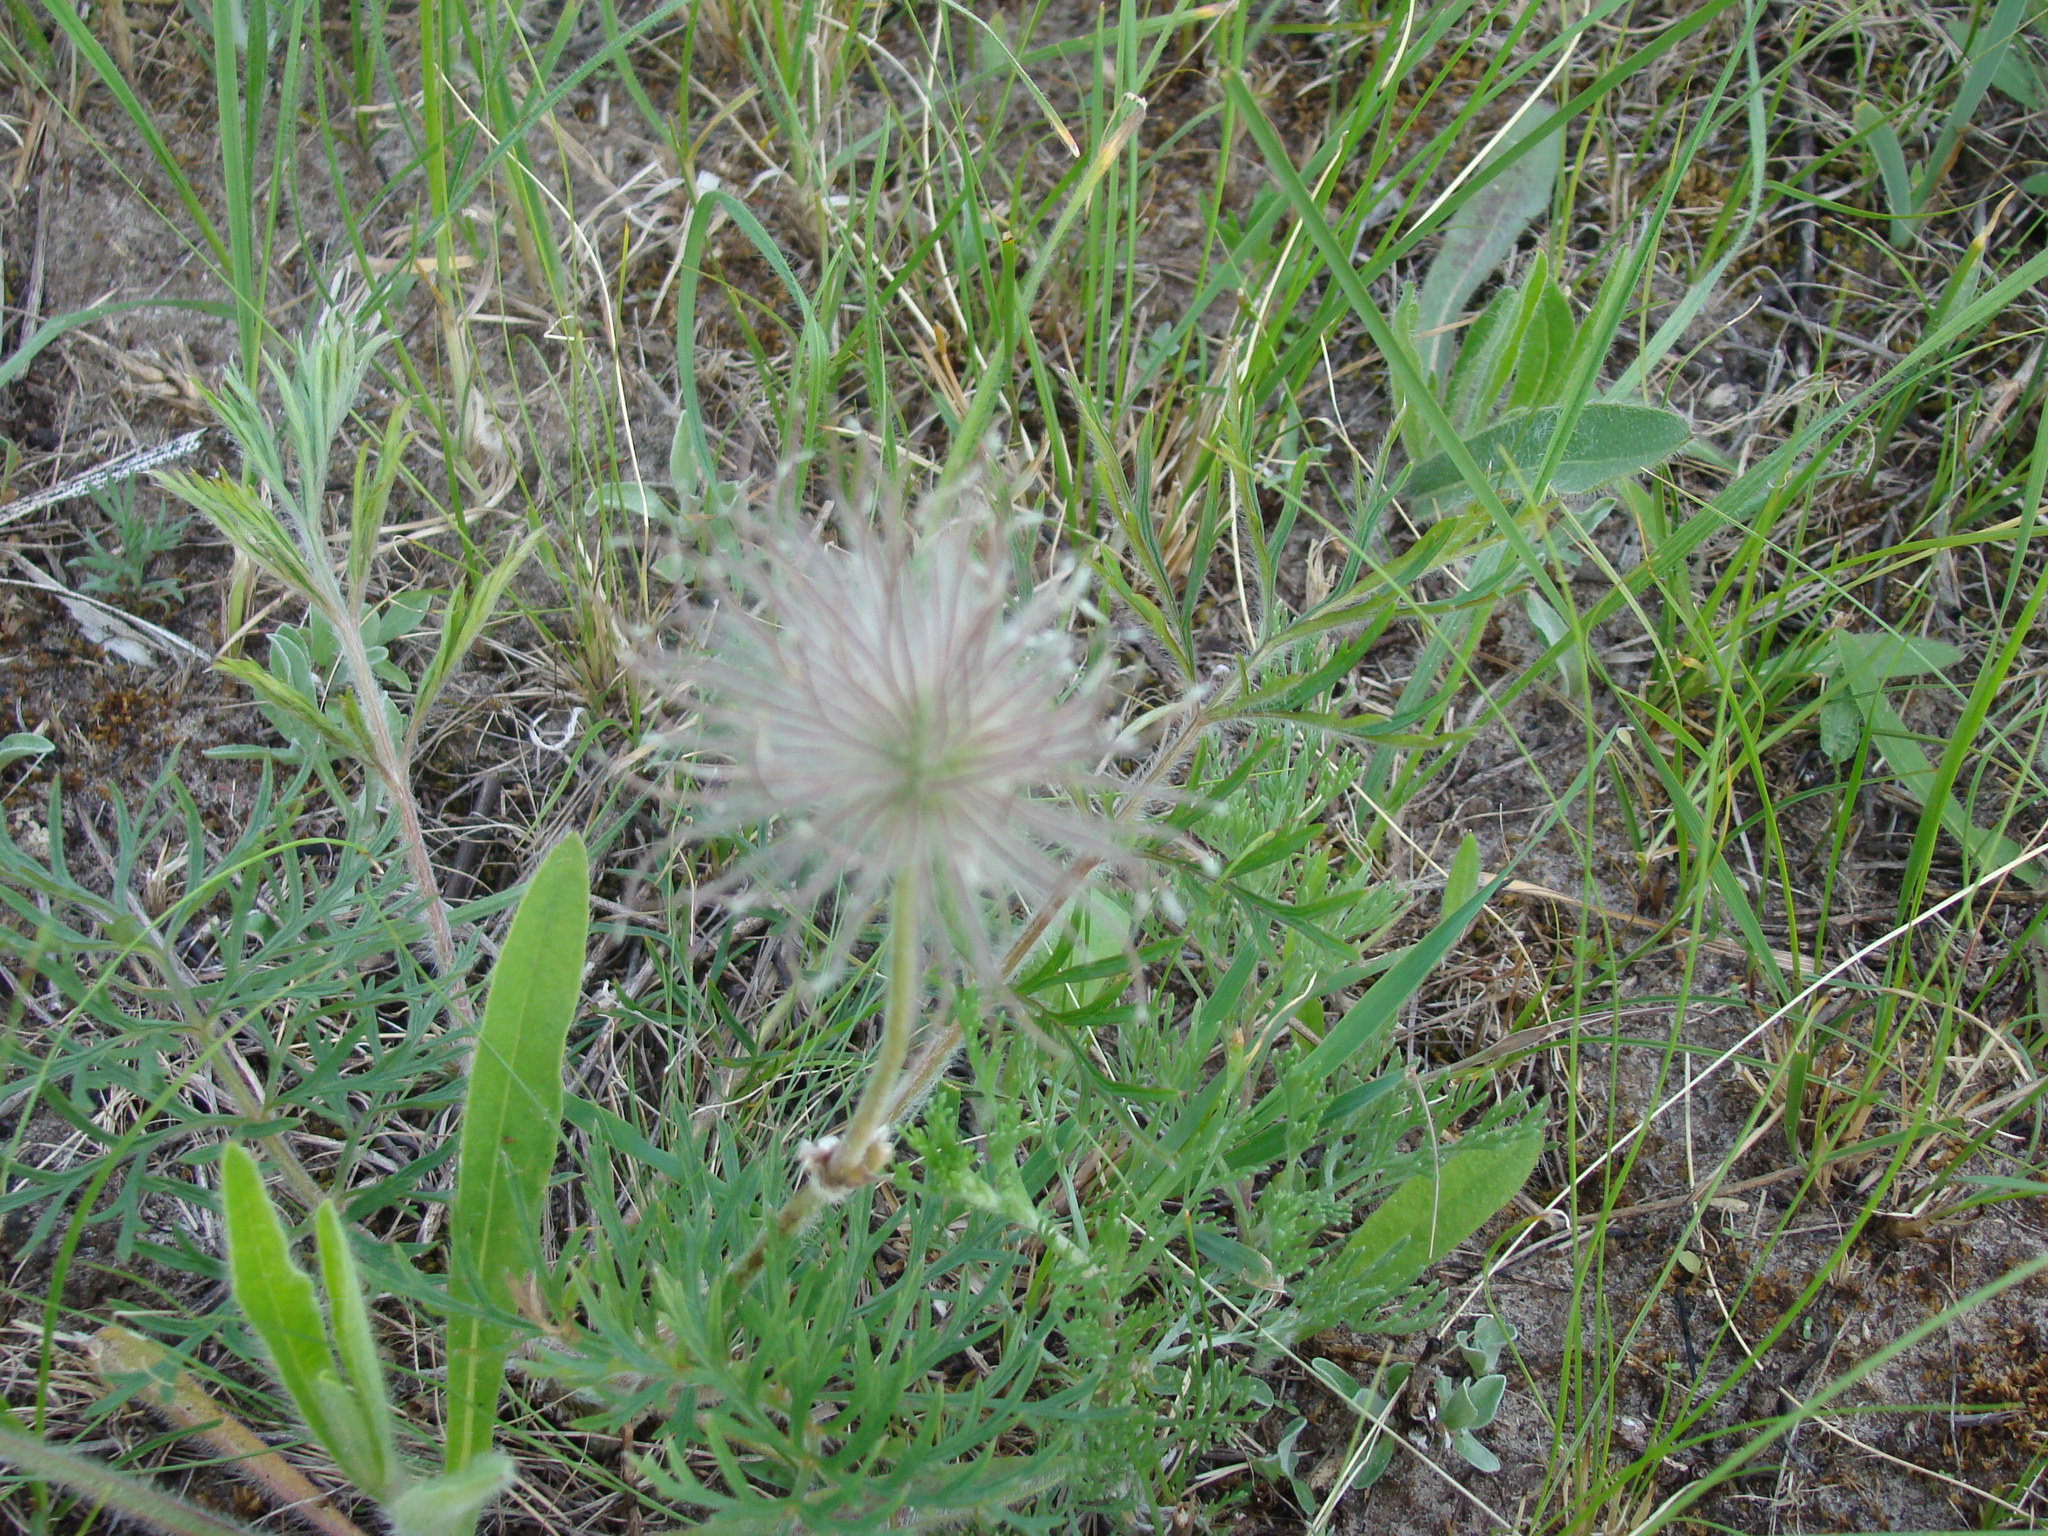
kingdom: Plantae
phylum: Tracheophyta
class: Magnoliopsida
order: Ranunculales
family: Ranunculaceae
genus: Pulsatilla
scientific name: Pulsatilla pratensis
